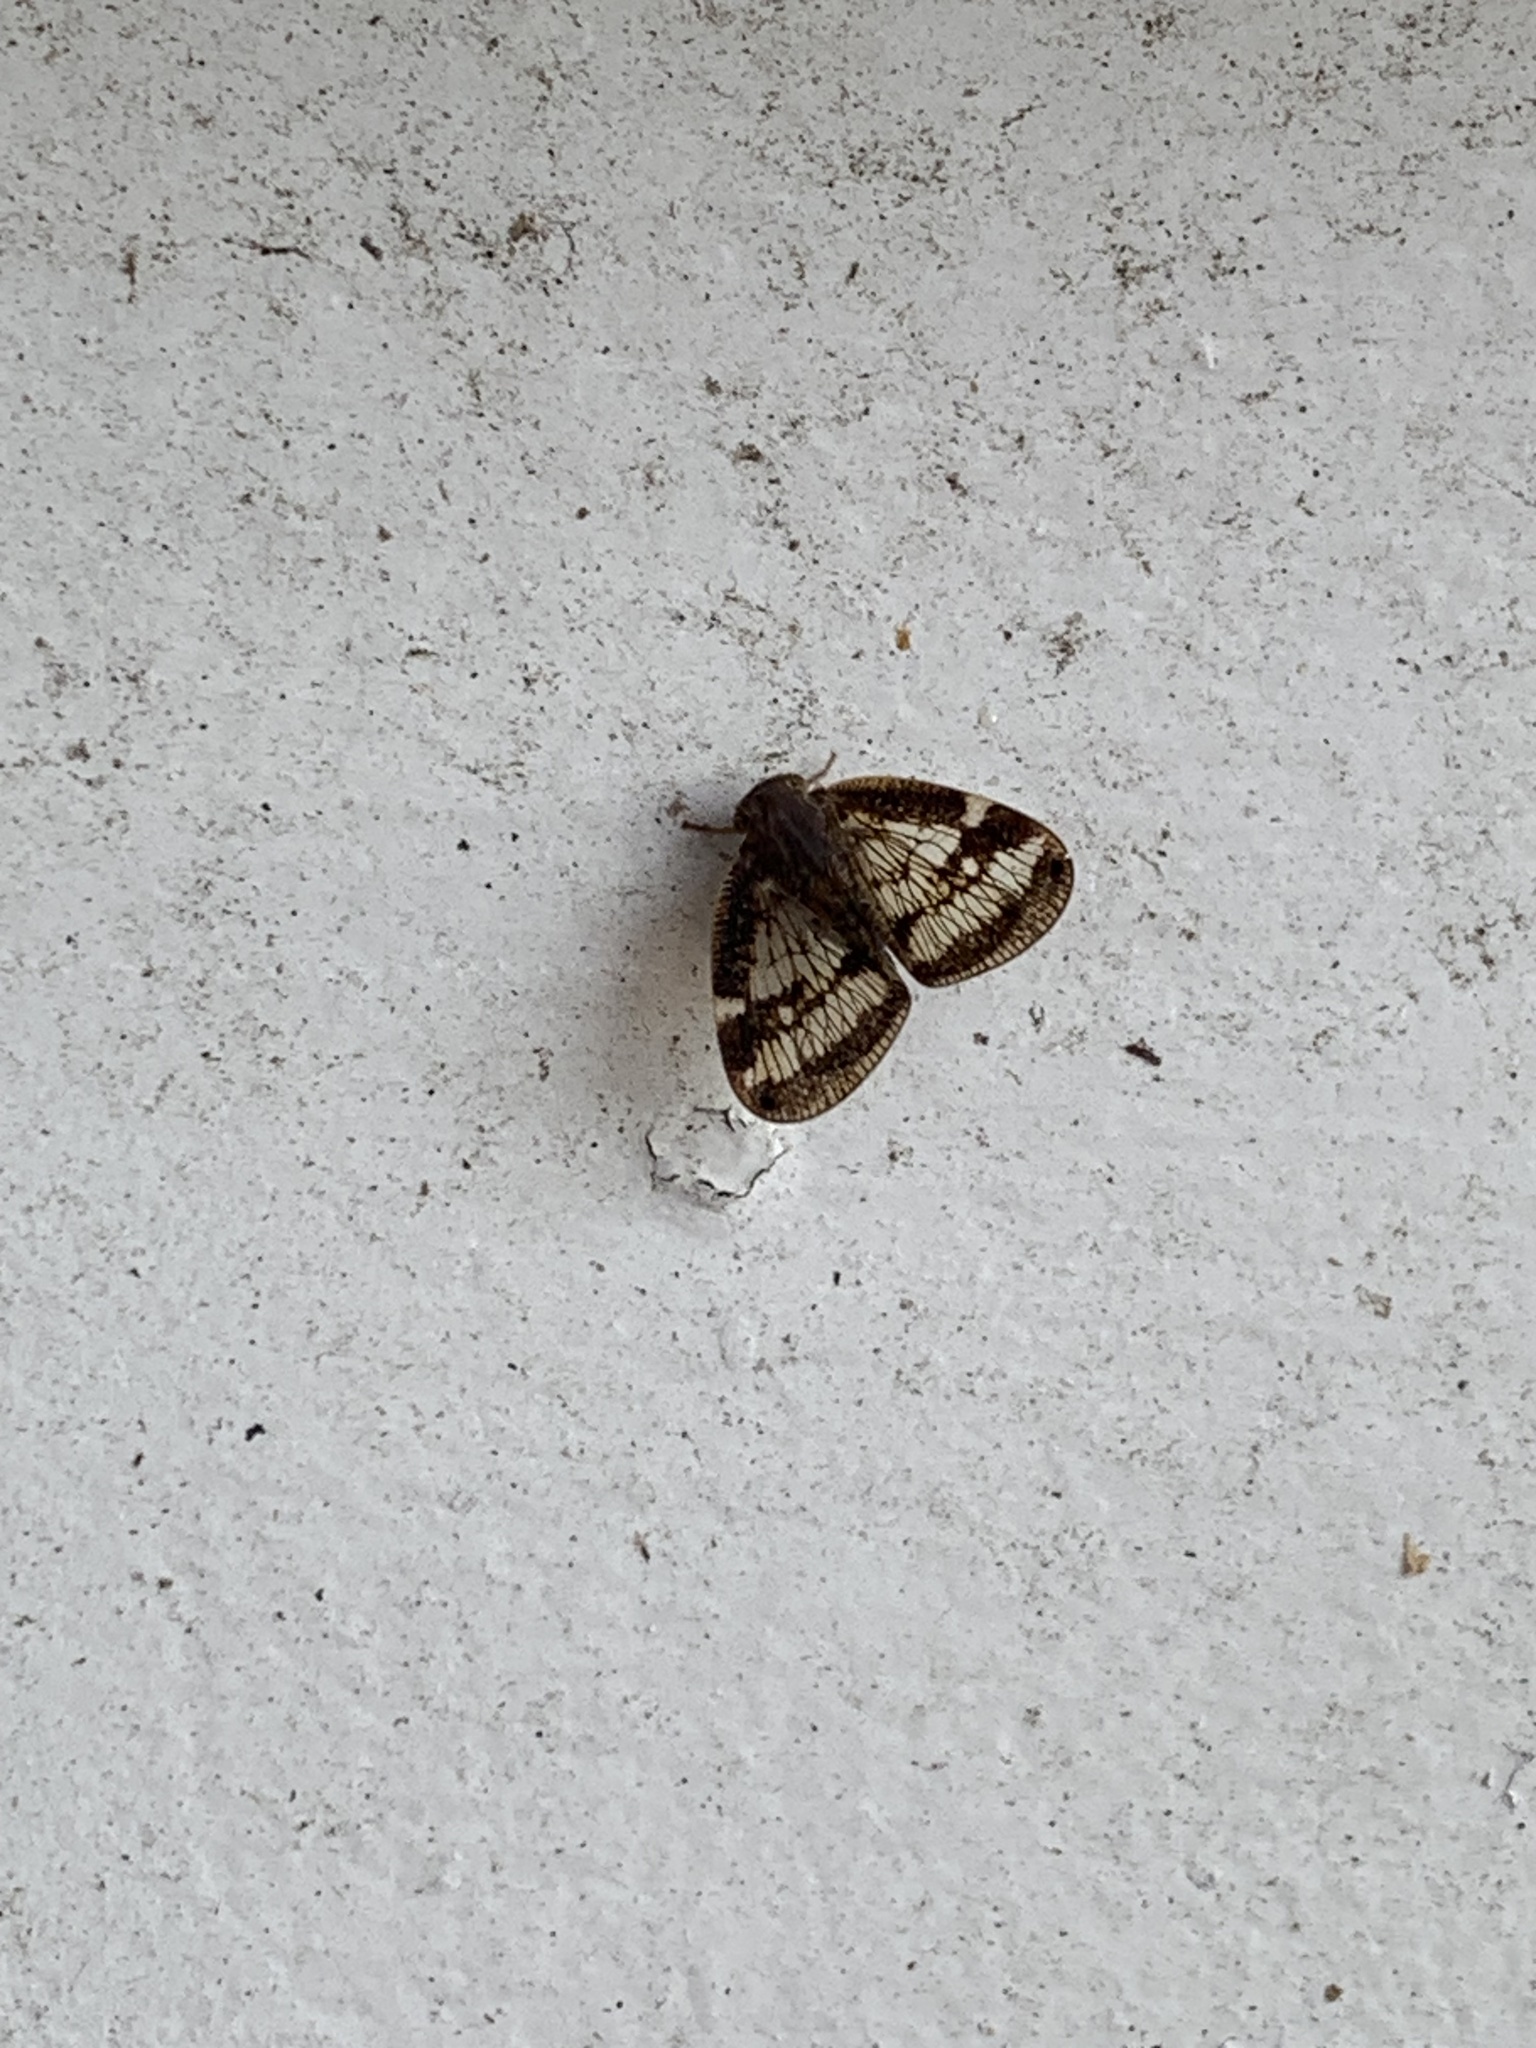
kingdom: Animalia
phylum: Arthropoda
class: Insecta
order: Hemiptera
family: Ricaniidae
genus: Scolypopa
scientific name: Scolypopa australis
